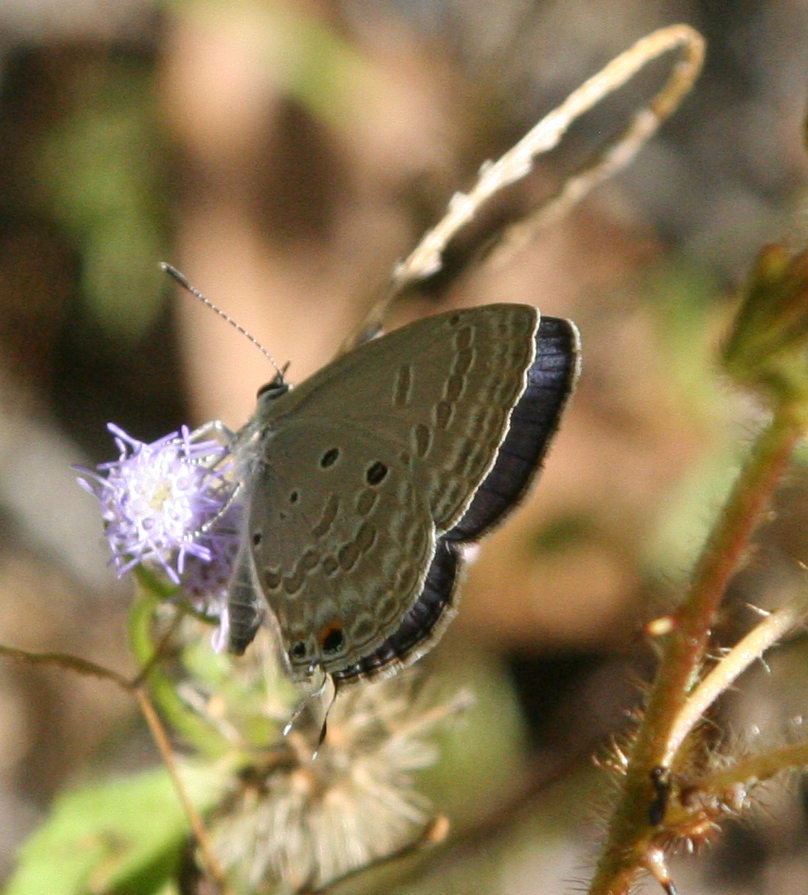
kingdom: Animalia
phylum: Arthropoda
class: Insecta
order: Lepidoptera
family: Lycaenidae
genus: Luthrodes
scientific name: Luthrodes pandava
